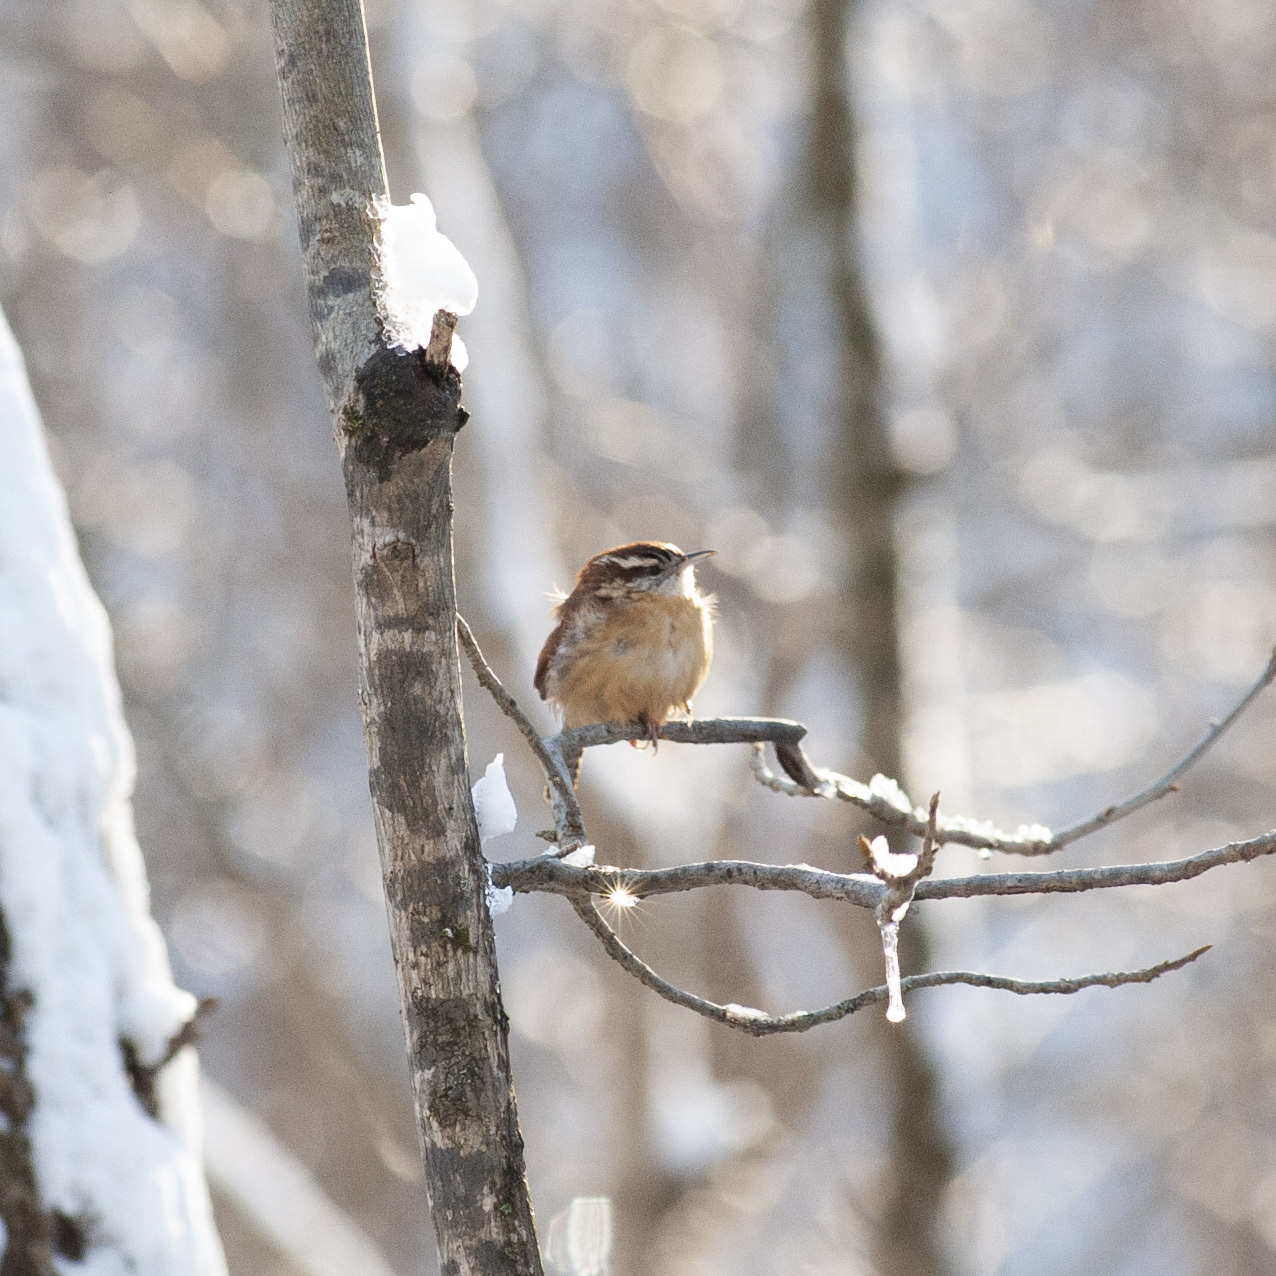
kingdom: Animalia
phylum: Chordata
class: Aves
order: Passeriformes
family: Troglodytidae
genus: Thryothorus
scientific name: Thryothorus ludovicianus
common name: Carolina wren
